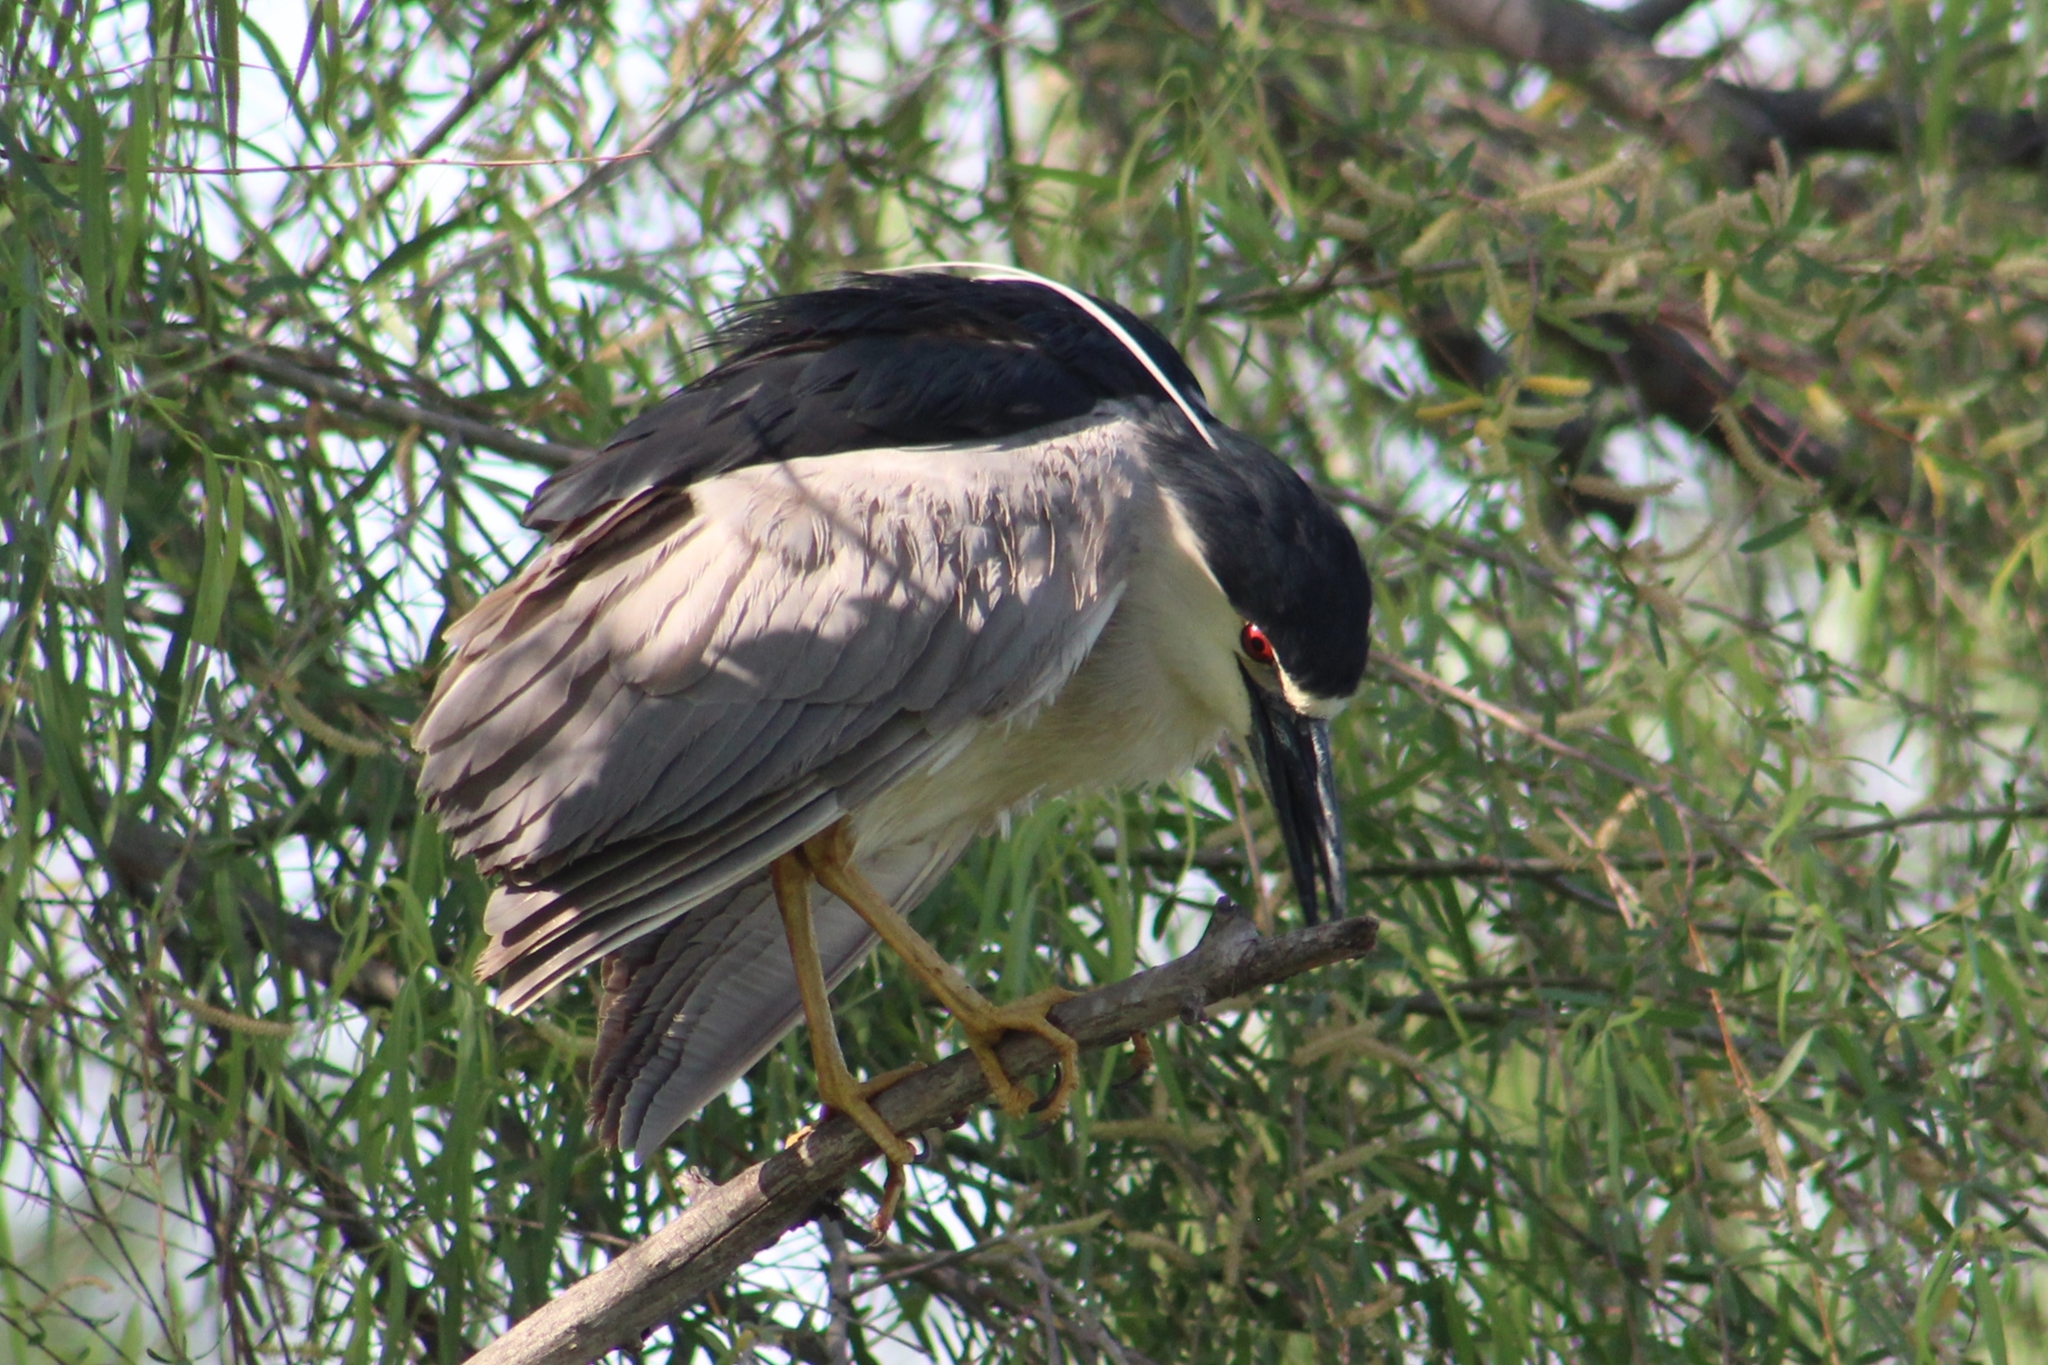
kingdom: Animalia
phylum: Chordata
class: Aves
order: Pelecaniformes
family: Ardeidae
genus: Nycticorax
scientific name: Nycticorax nycticorax
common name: Black-crowned night heron
